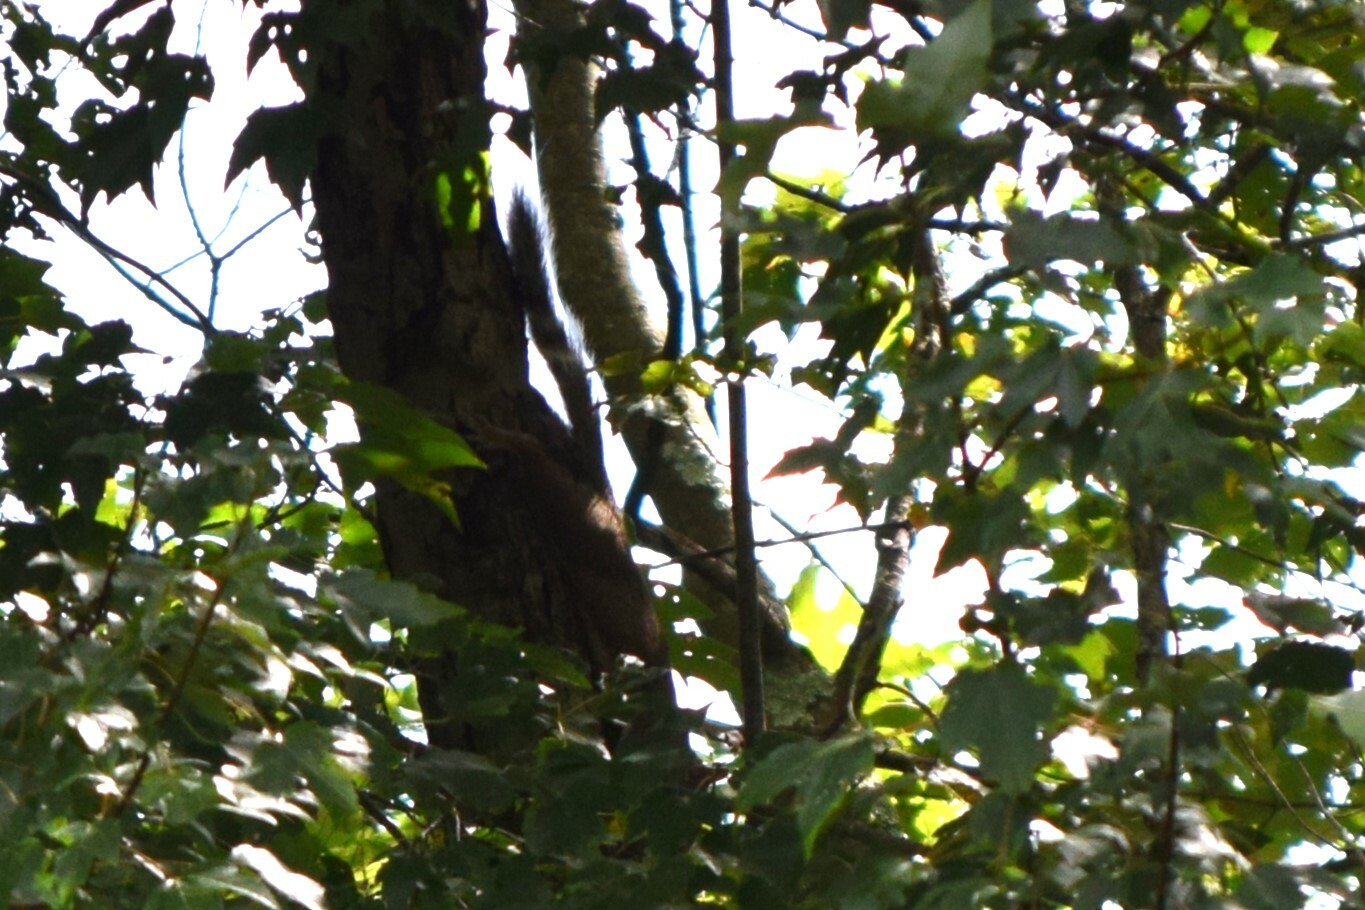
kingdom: Animalia
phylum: Chordata
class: Mammalia
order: Rodentia
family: Sciuridae
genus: Sciurus
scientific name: Sciurus carolinensis
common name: Eastern gray squirrel
